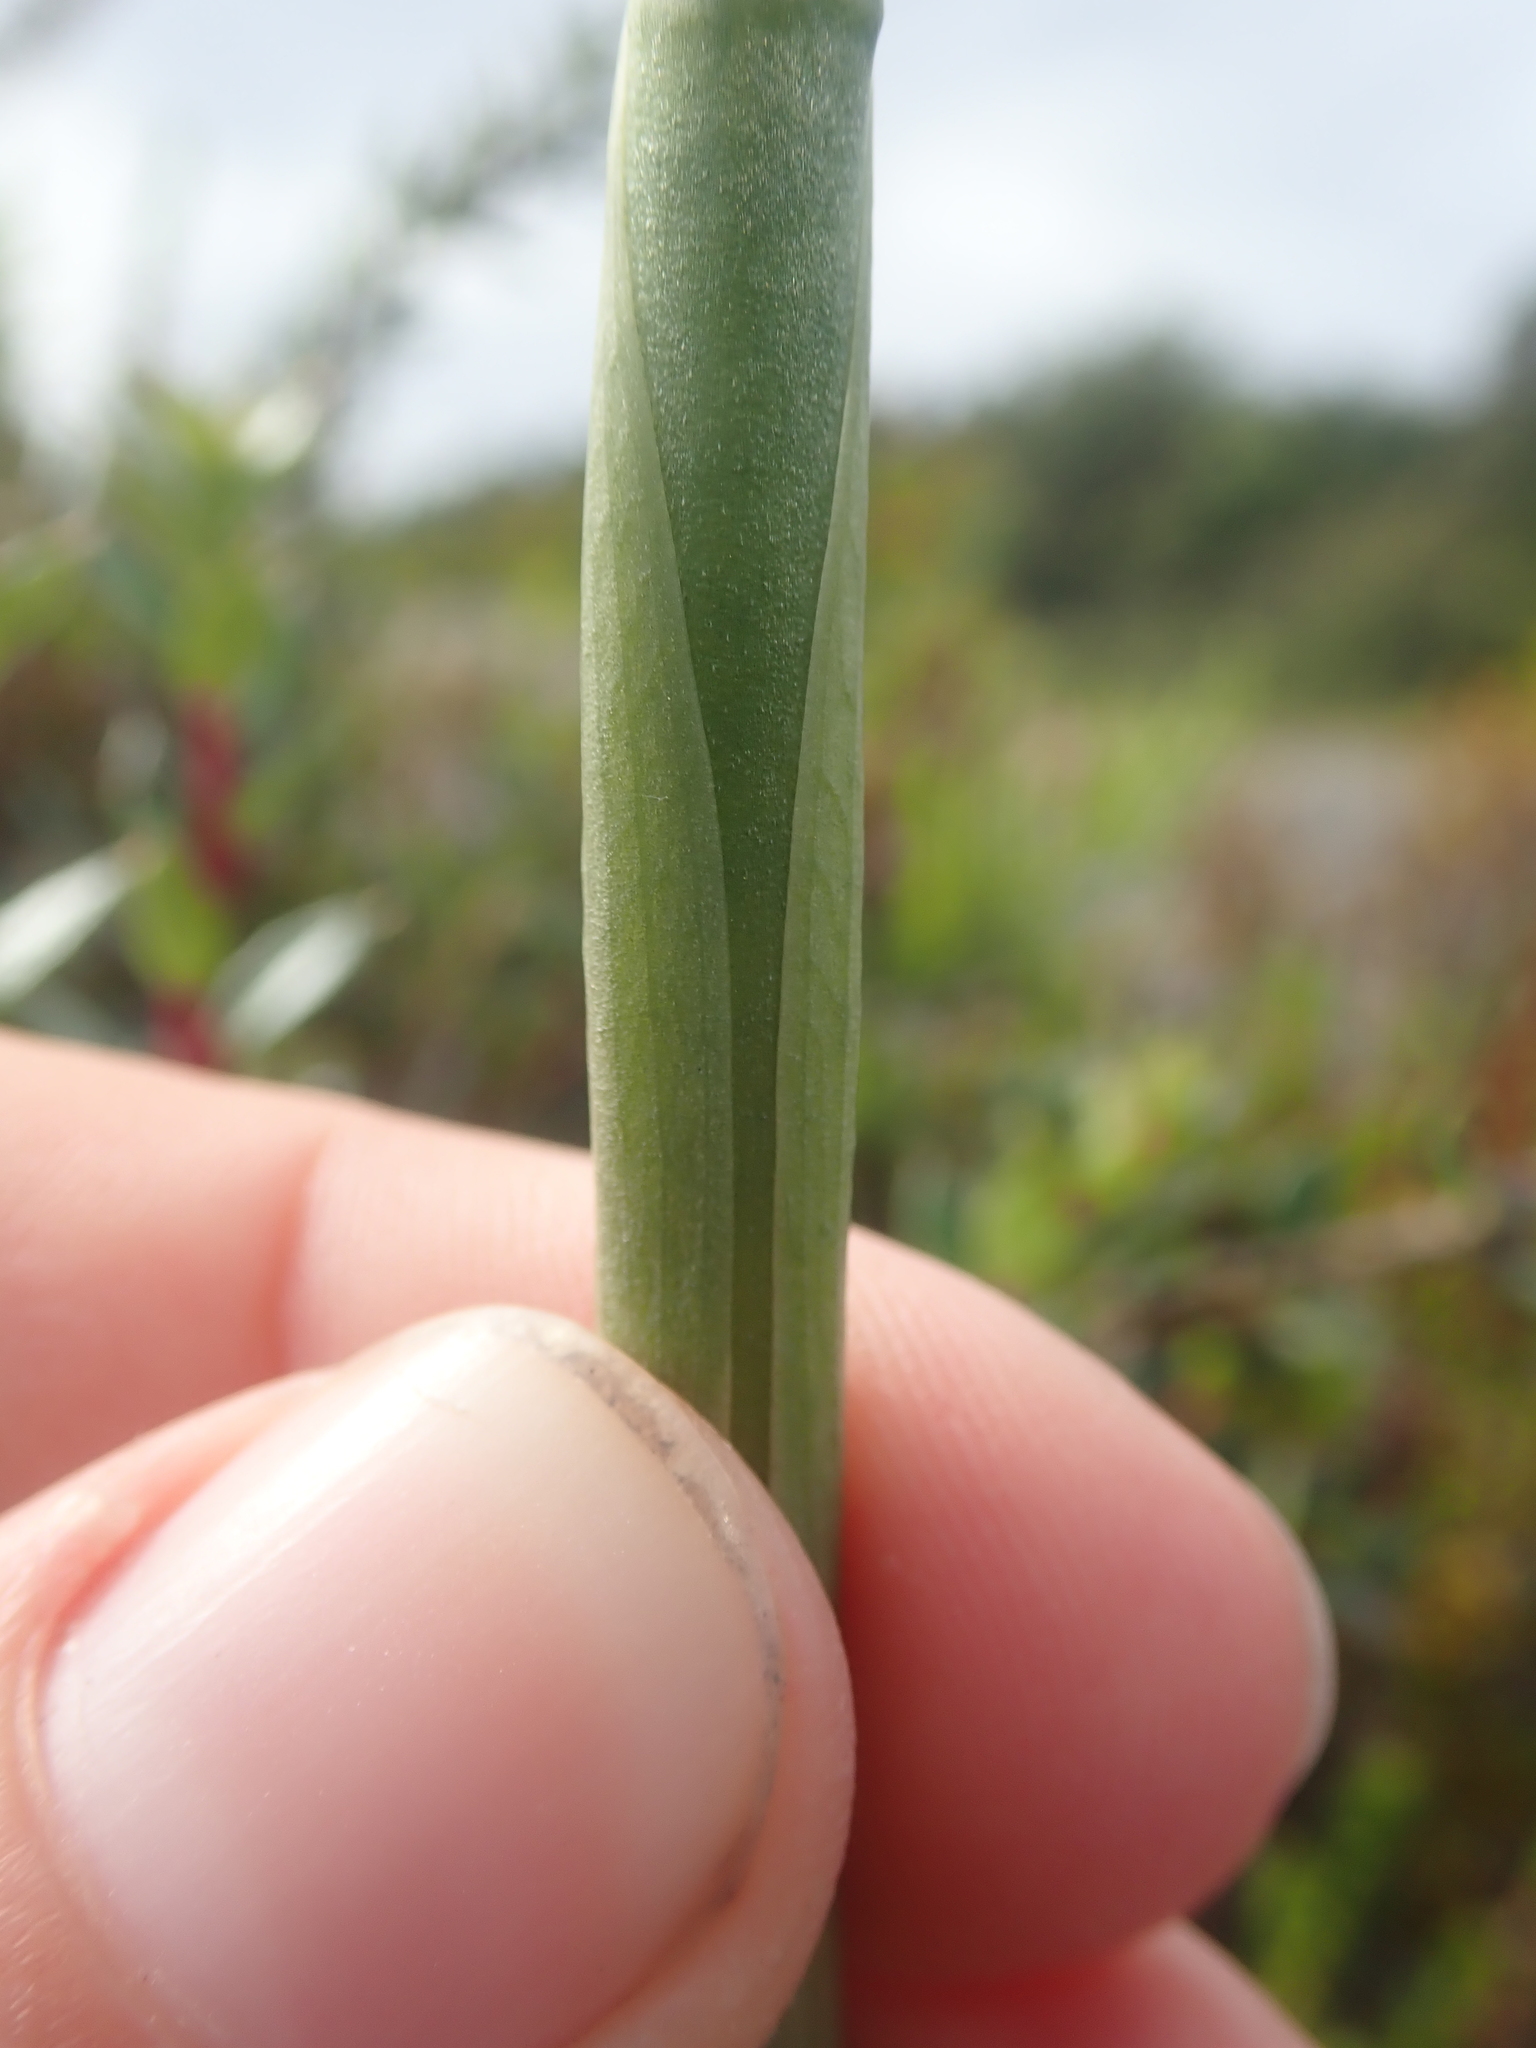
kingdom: Plantae
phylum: Tracheophyta
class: Liliopsida
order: Asparagales
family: Orchidaceae
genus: Gavilea
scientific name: Gavilea araucana
